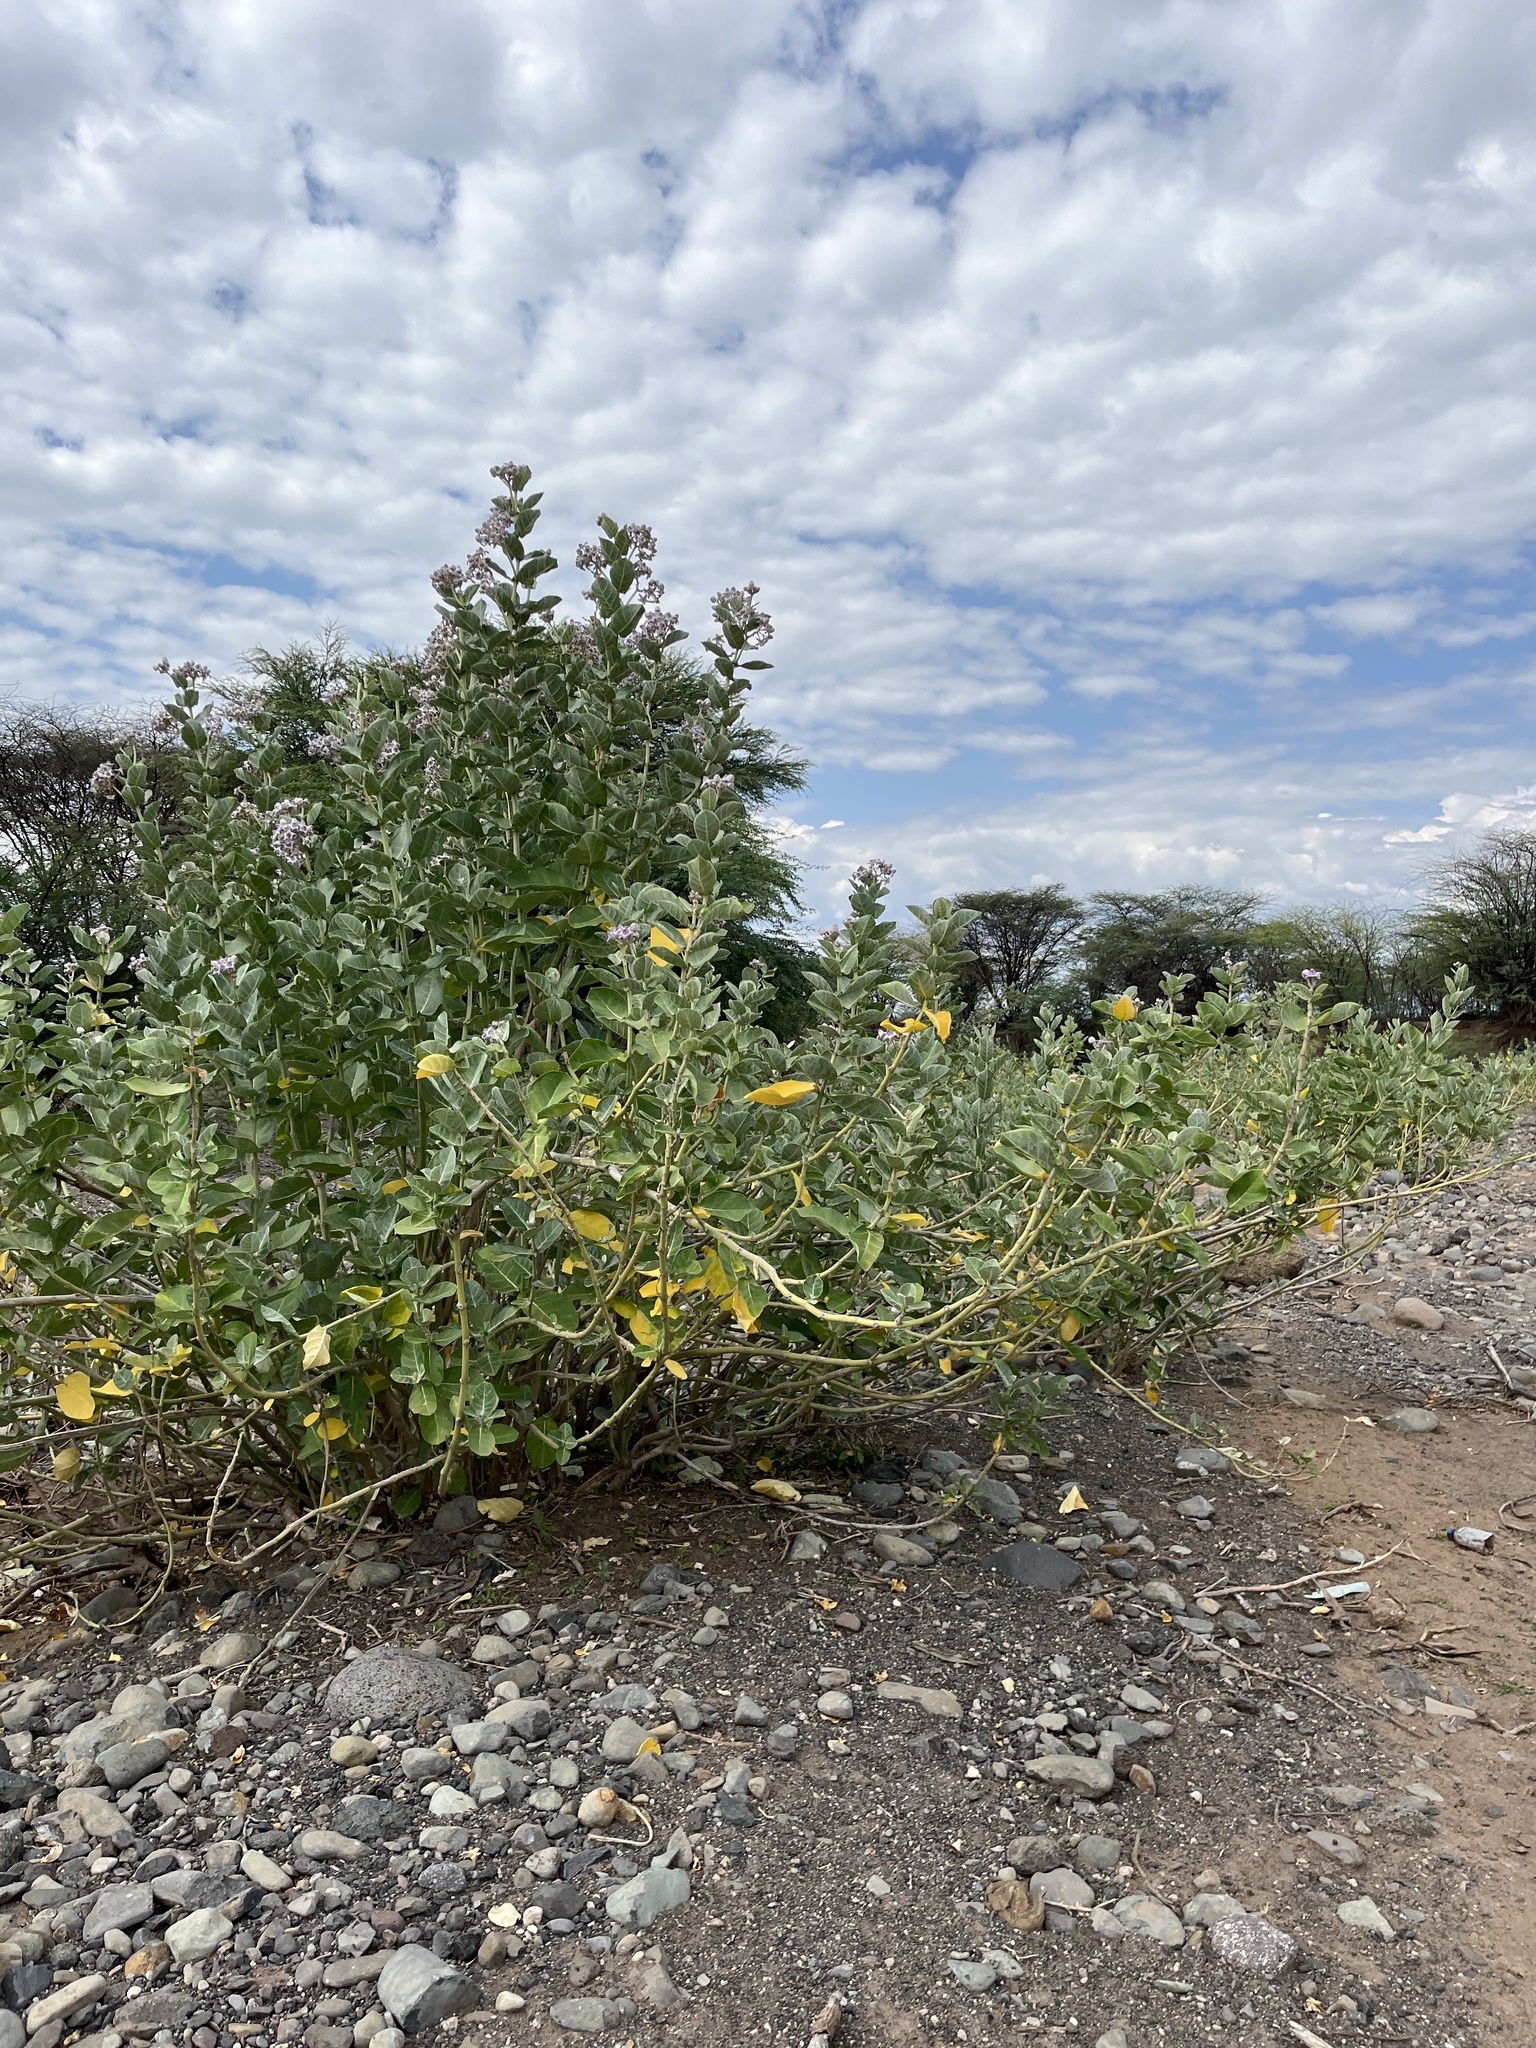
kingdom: Plantae
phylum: Tracheophyta
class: Magnoliopsida
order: Gentianales
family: Apocynaceae
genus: Calotropis
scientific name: Calotropis gigantea
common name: Crown flower
